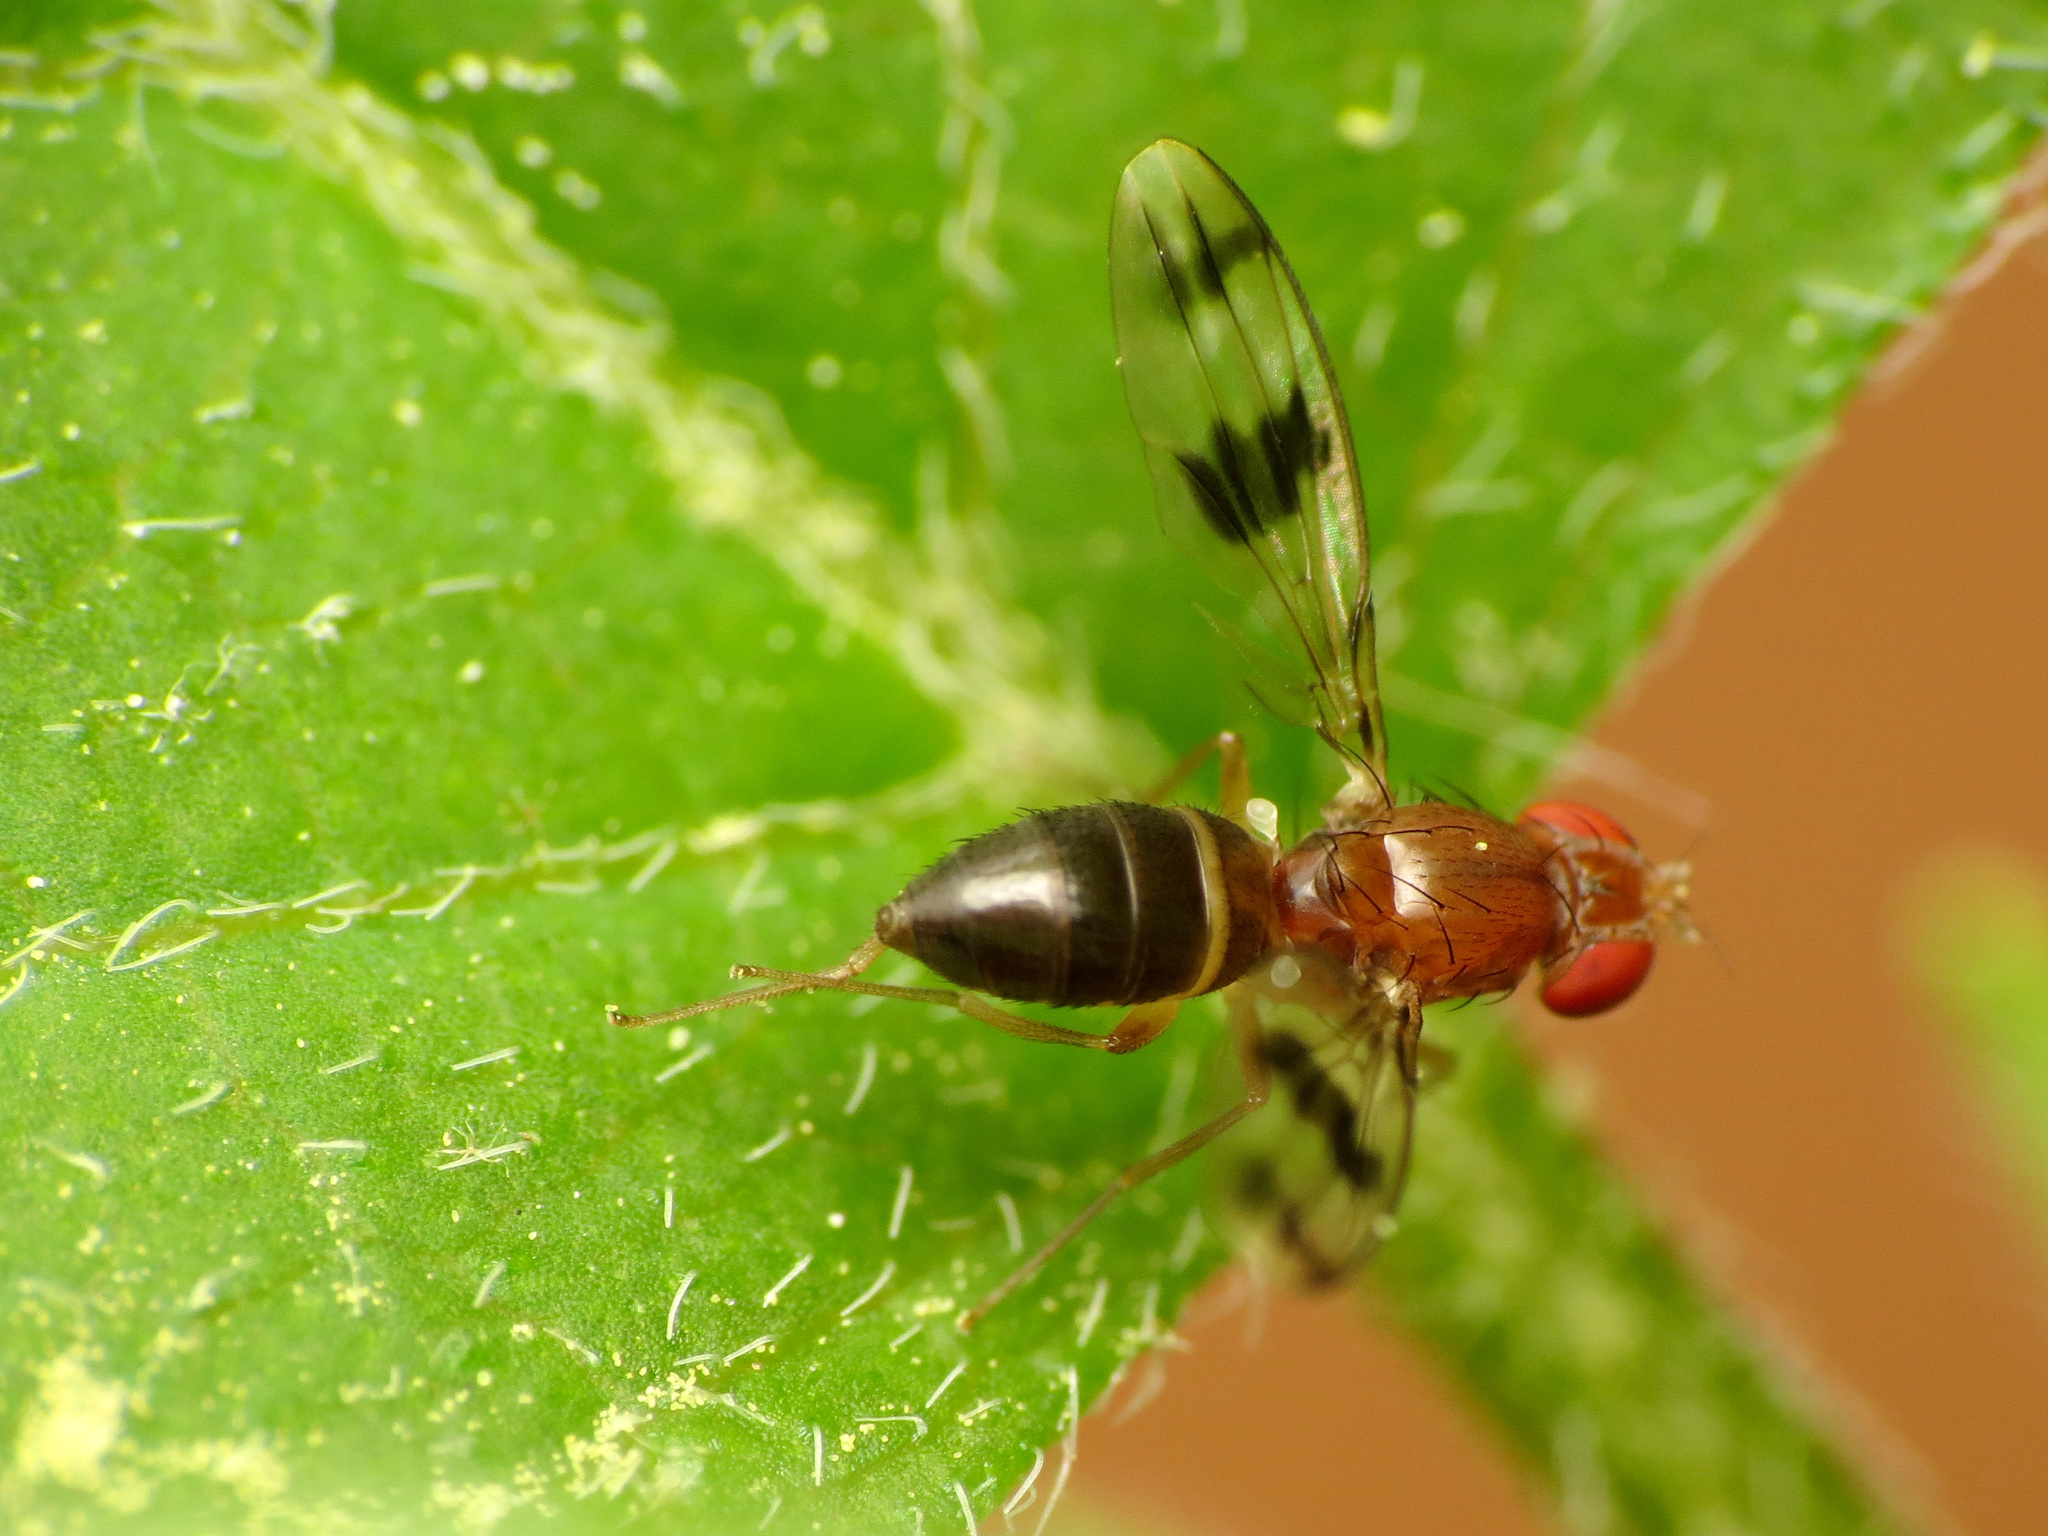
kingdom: Animalia
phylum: Arthropoda
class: Insecta
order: Diptera
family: Drosophilidae
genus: Chymomyza
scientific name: Chymomyza amoena
